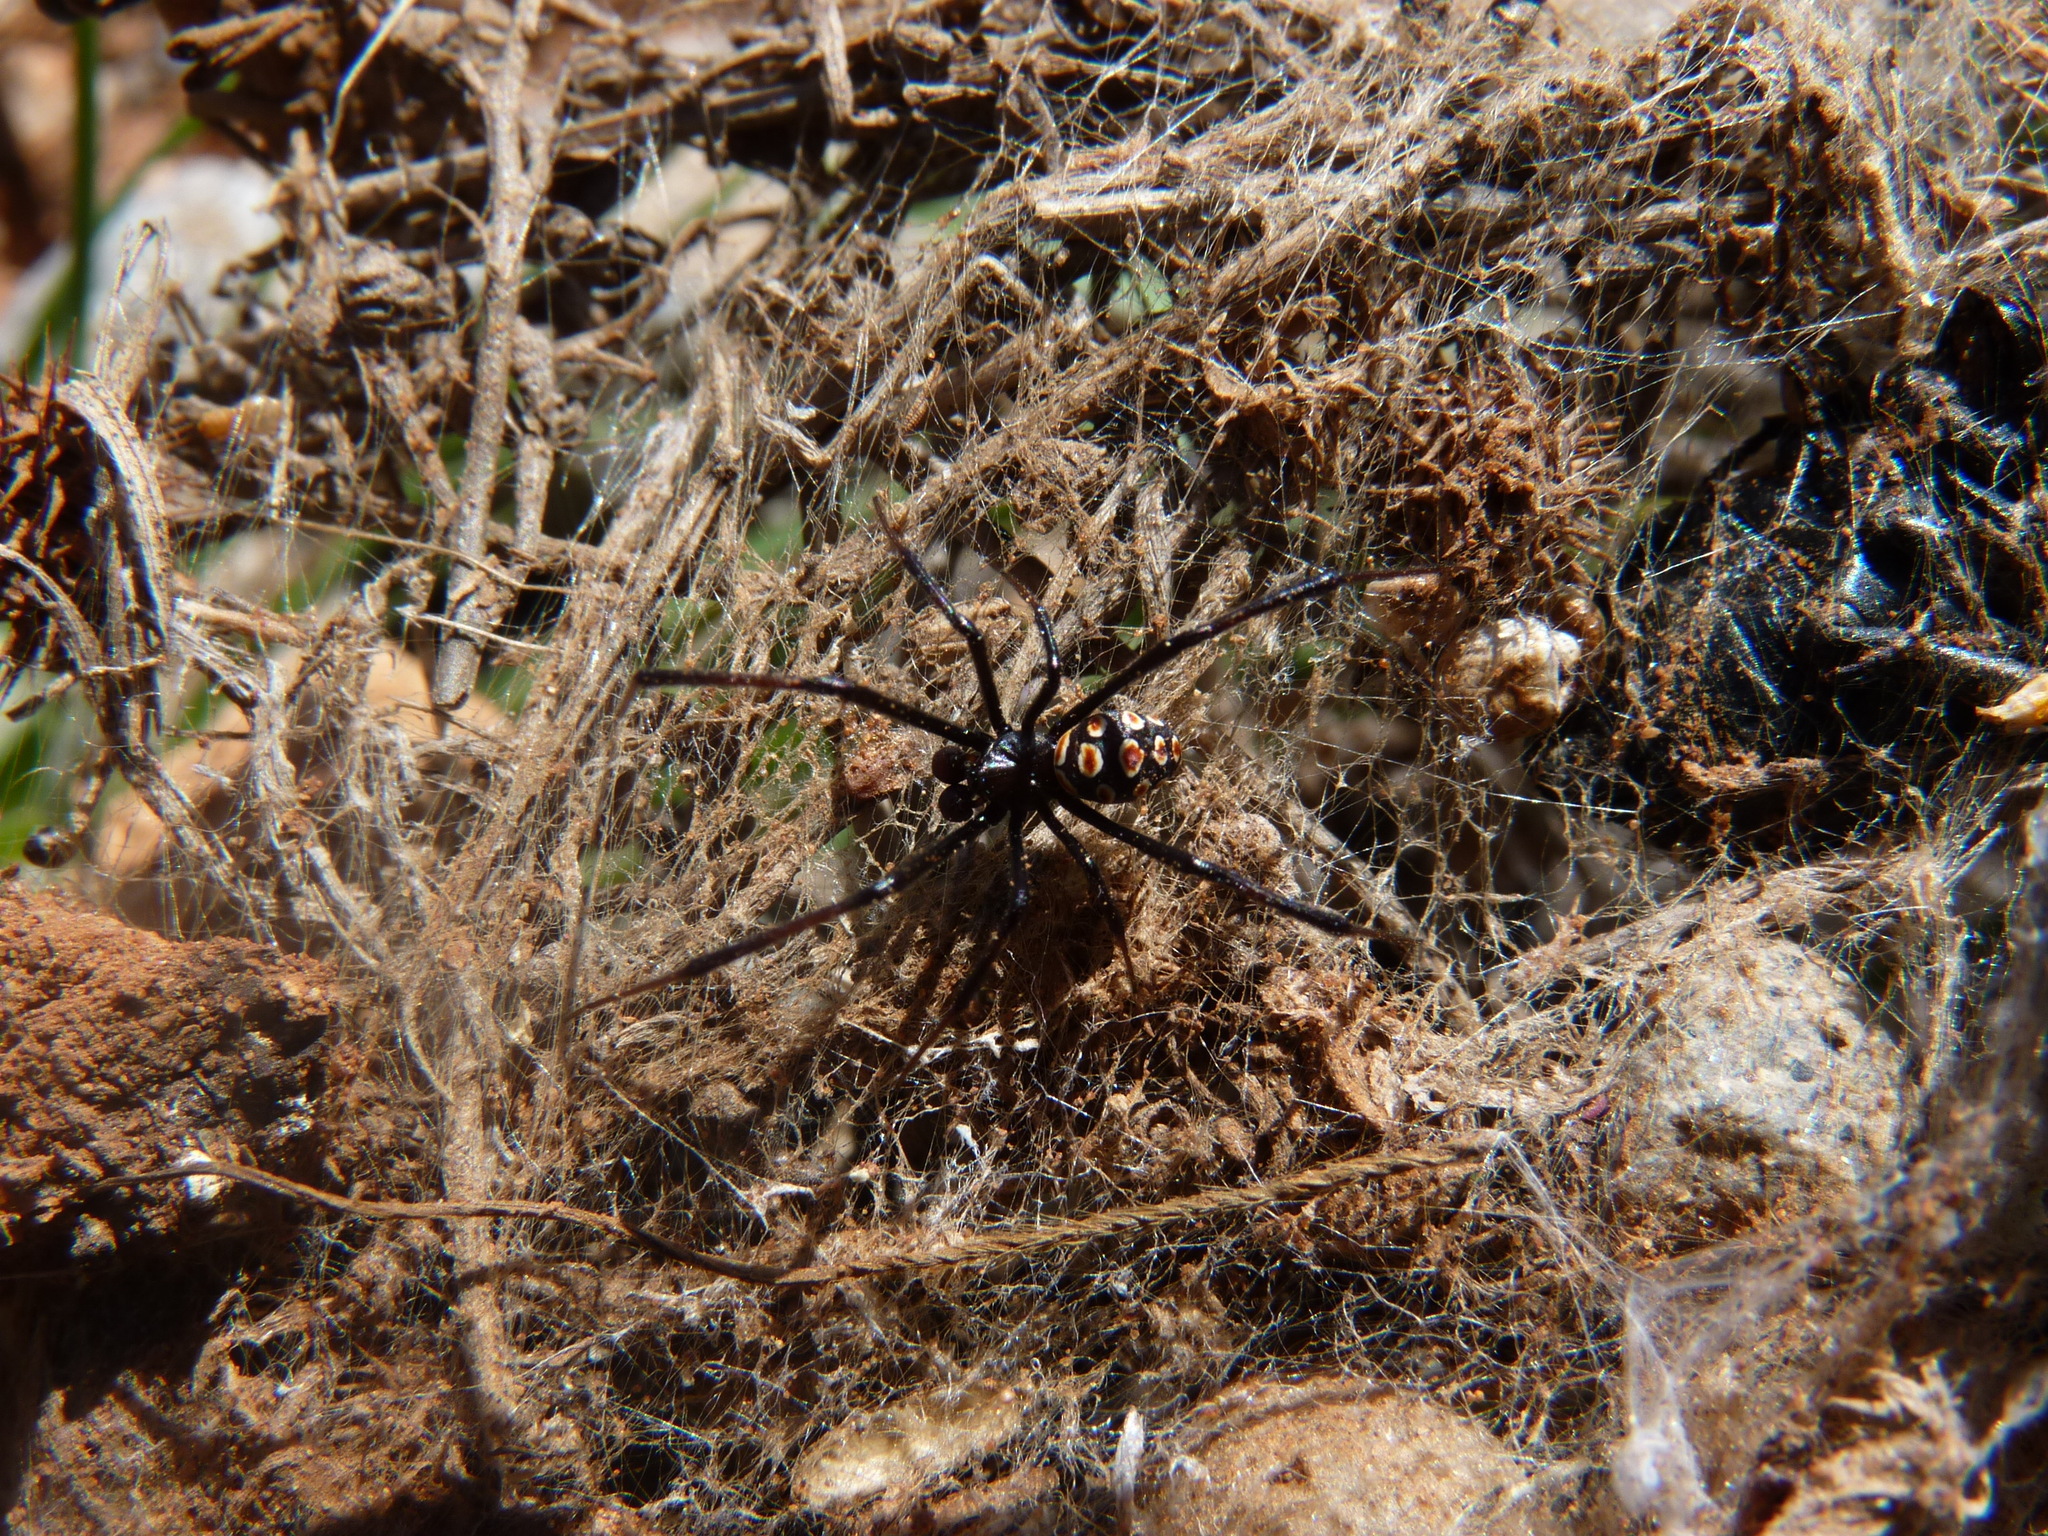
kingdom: Animalia
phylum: Arthropoda
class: Arachnida
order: Araneae
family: Theridiidae
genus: Latrodectus
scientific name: Latrodectus tredecimguttatus
